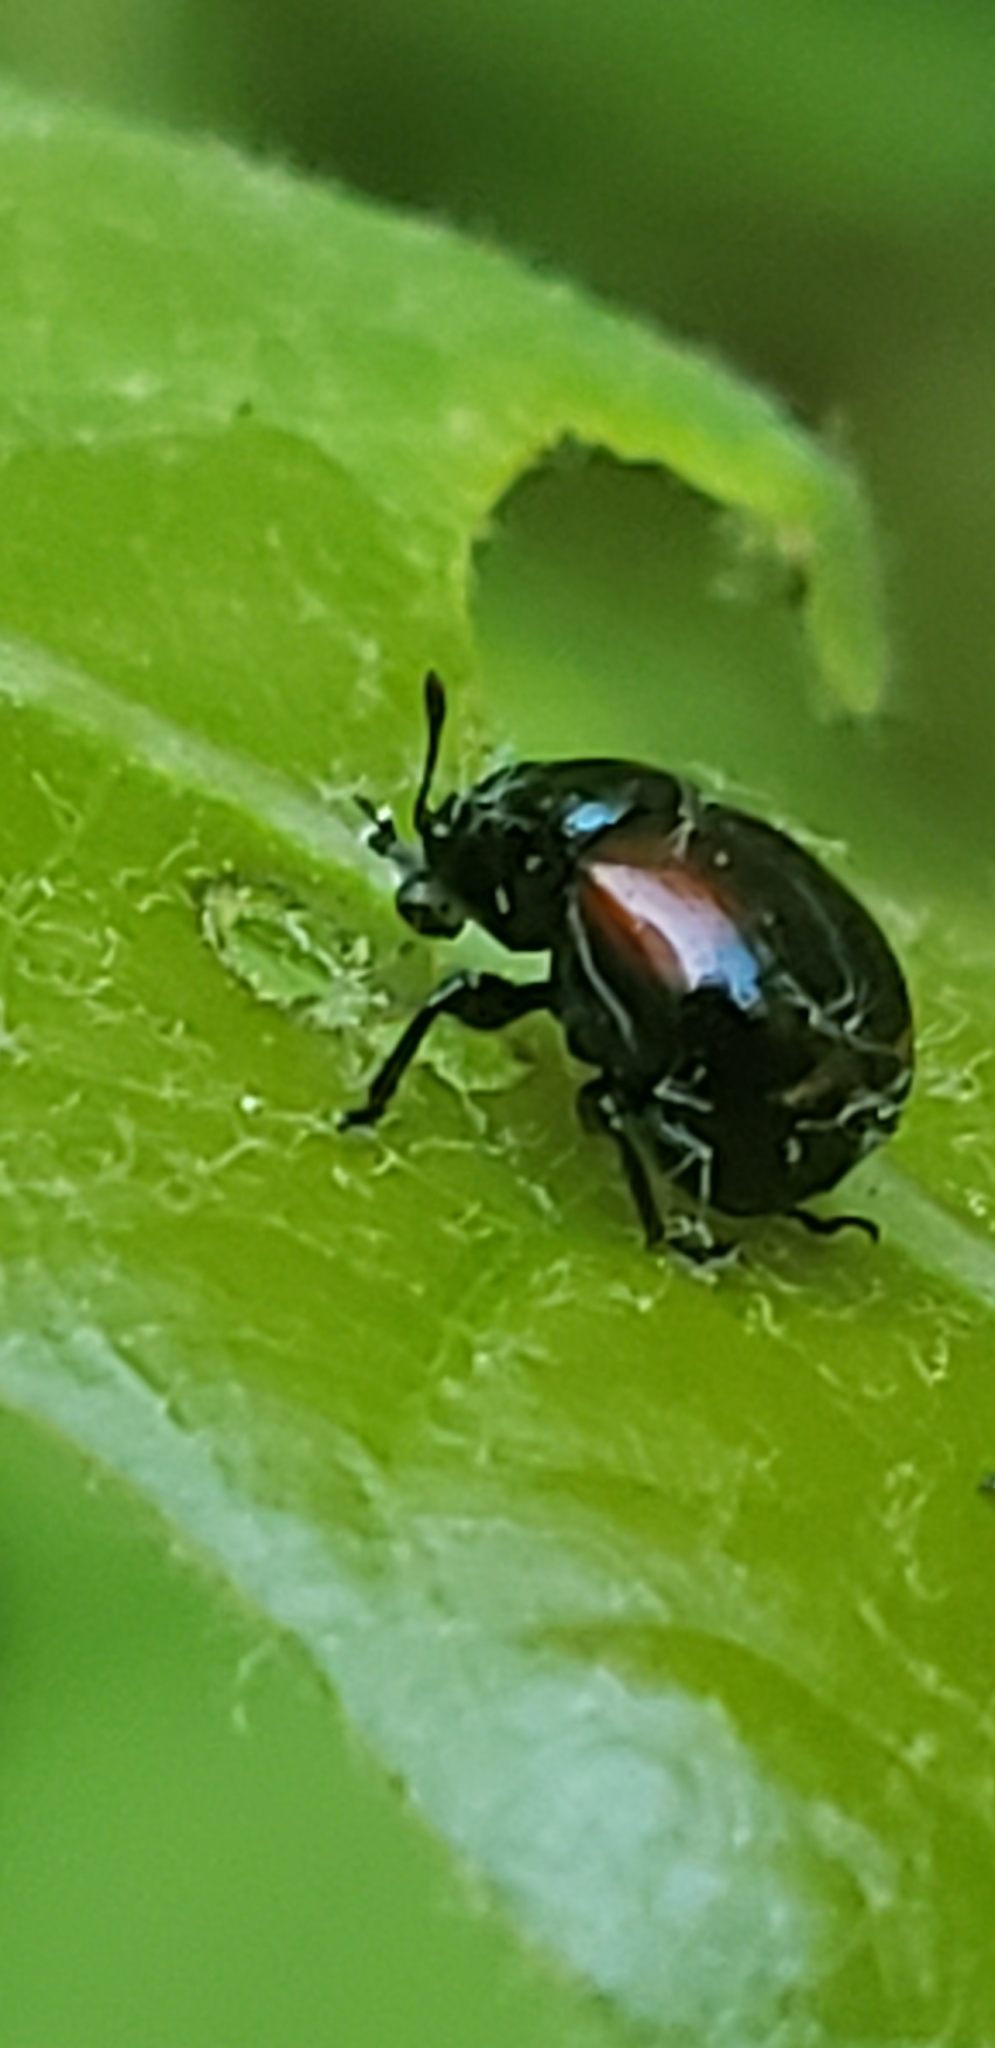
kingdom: Animalia
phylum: Arthropoda
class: Insecta
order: Coleoptera
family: Attelabidae
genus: Attelabus
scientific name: Attelabus bipustulatus
